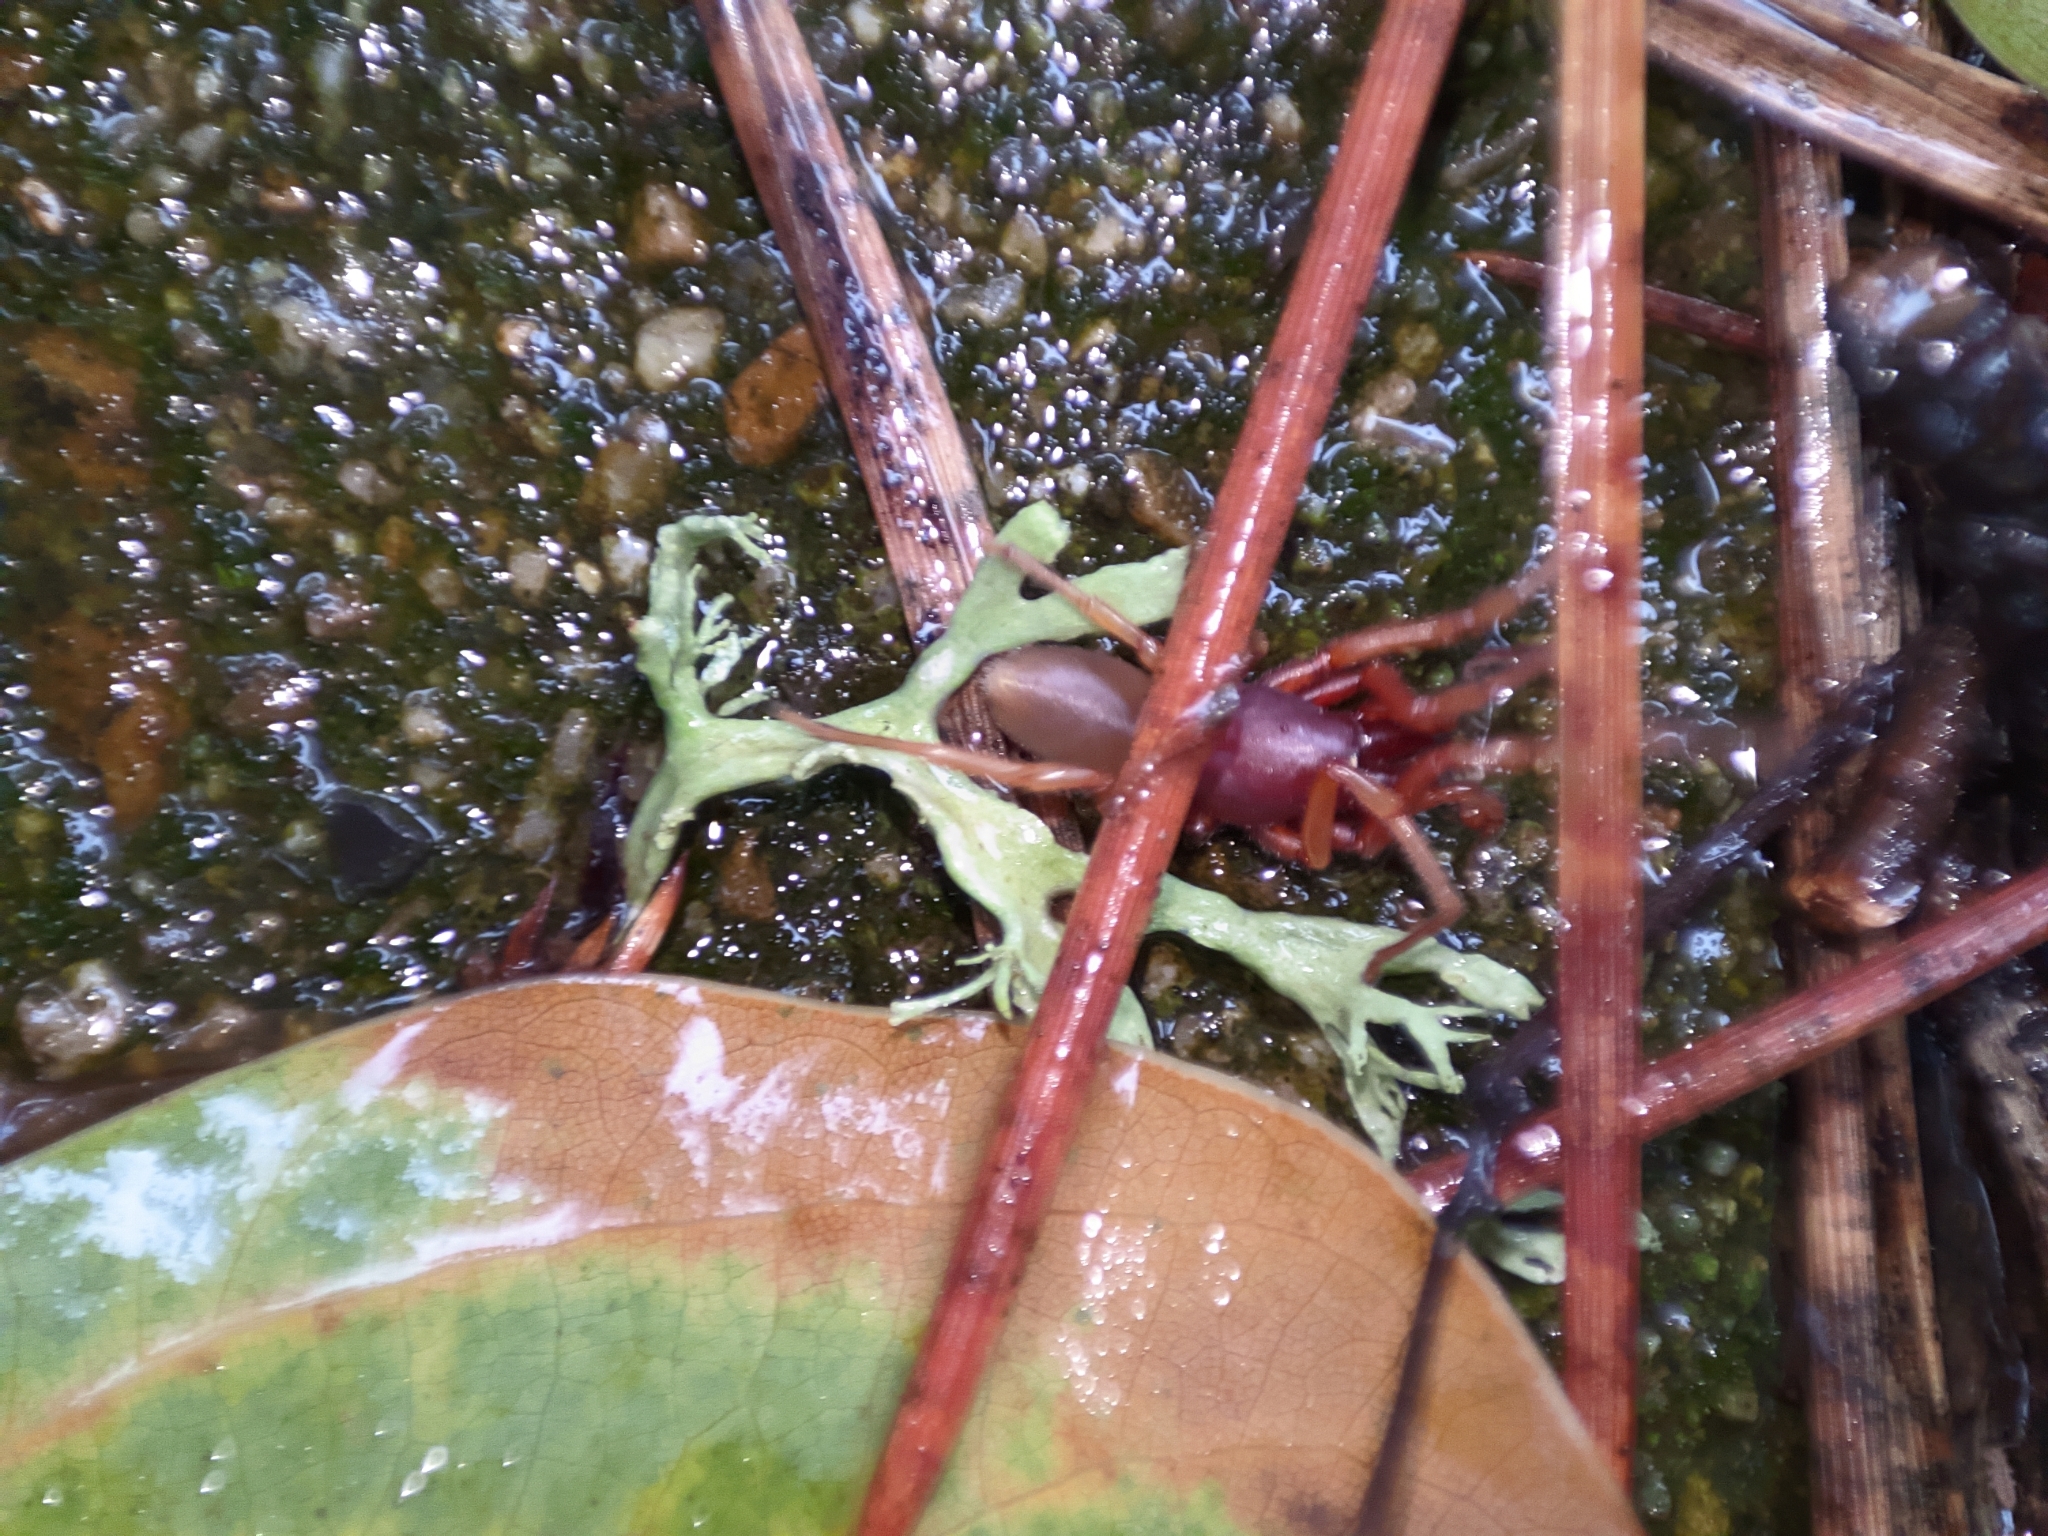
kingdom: Animalia
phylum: Arthropoda
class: Arachnida
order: Araneae
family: Dysderidae
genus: Dysdera
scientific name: Dysdera crocata
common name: Woodlouse spider
